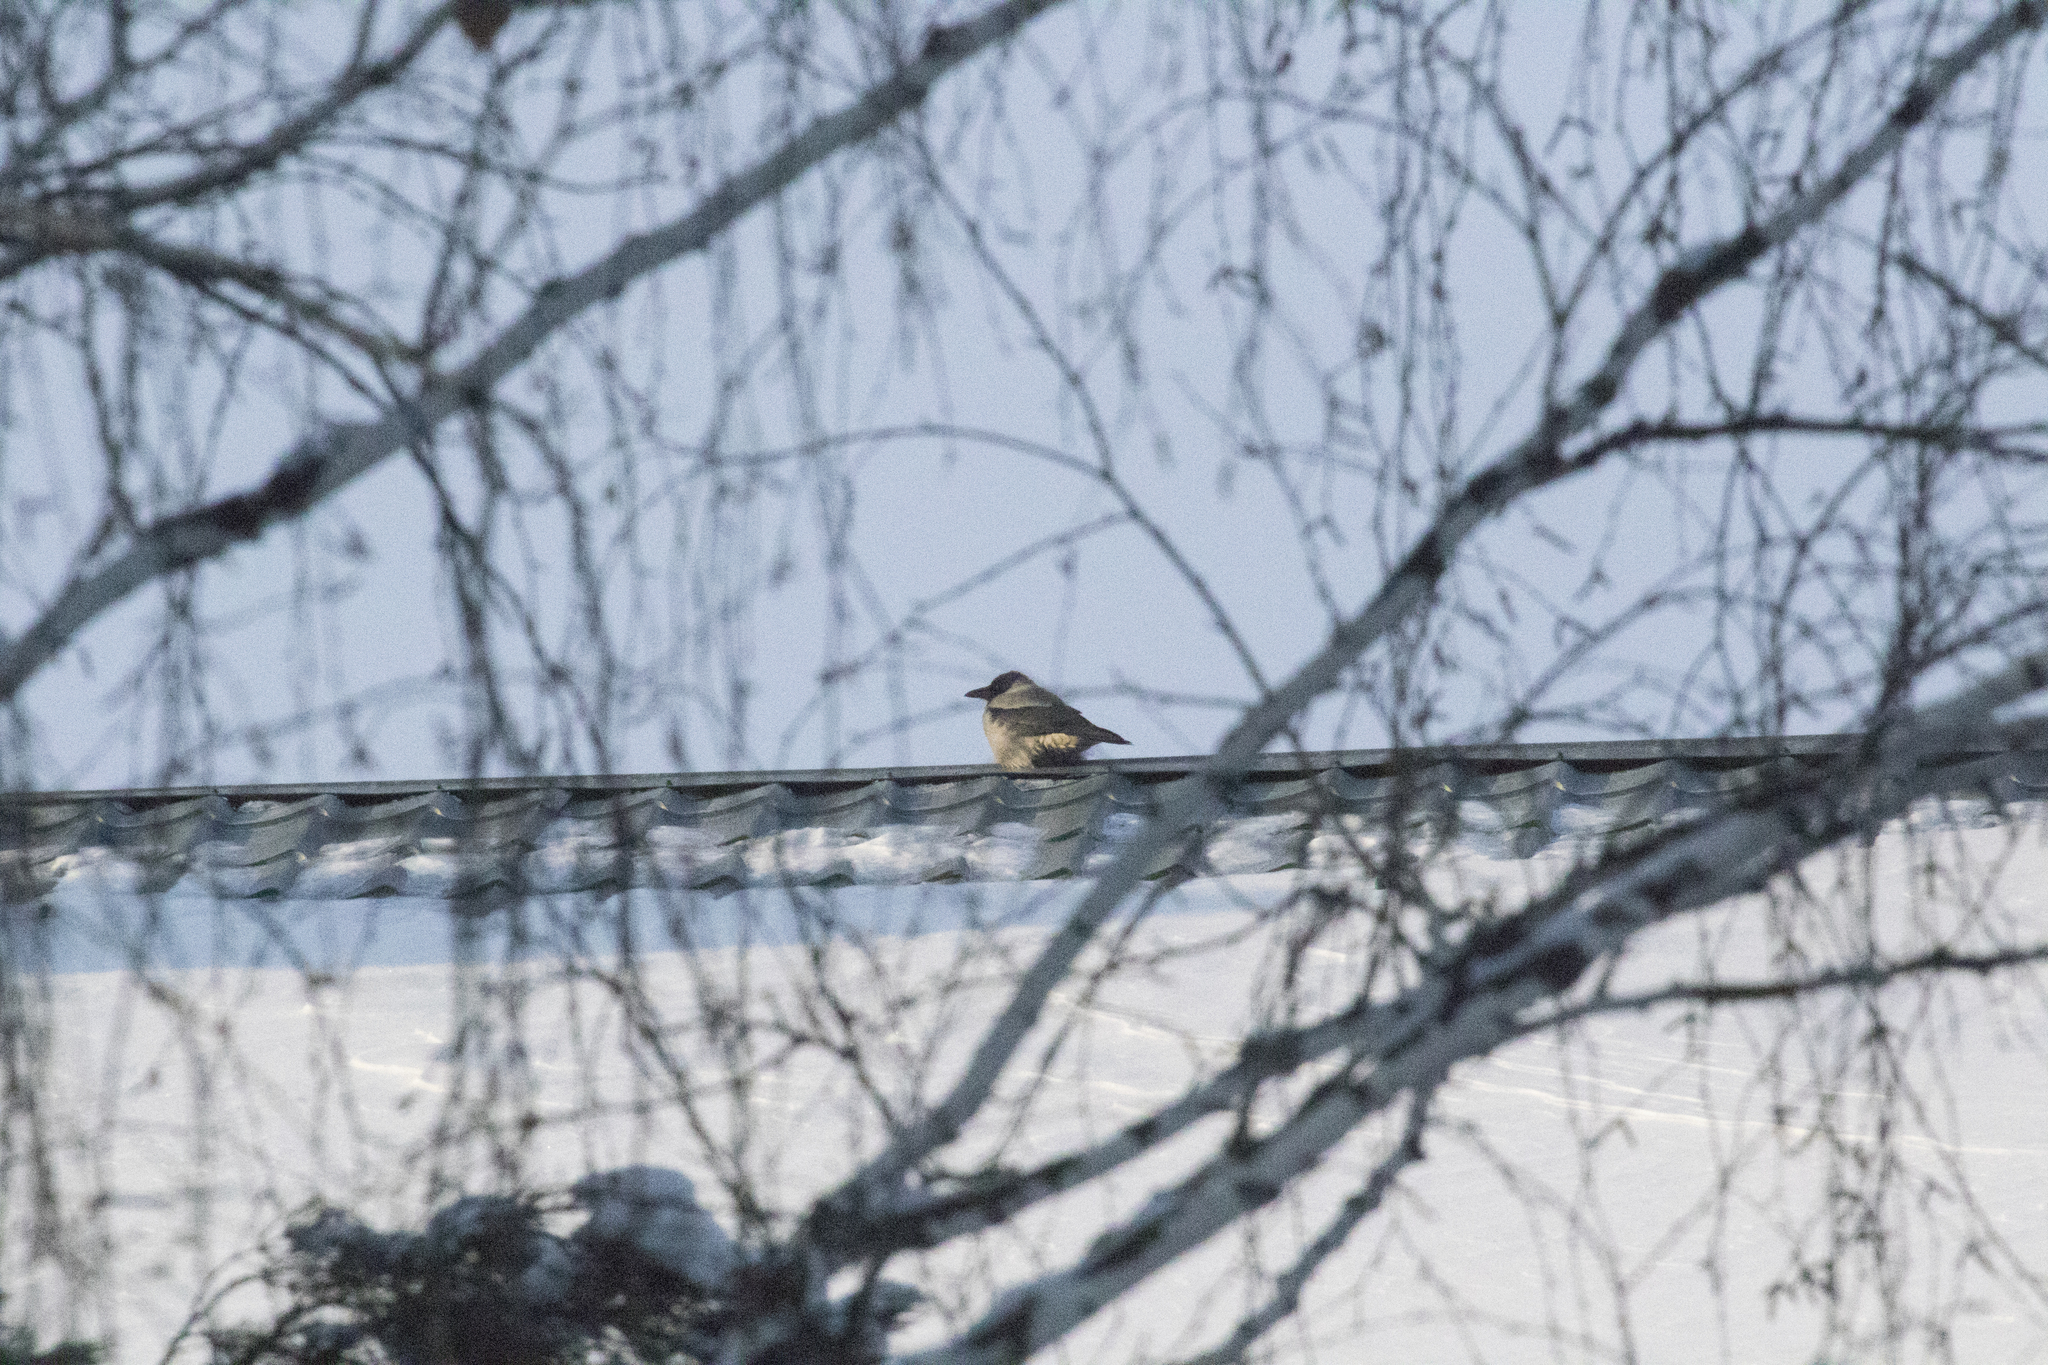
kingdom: Animalia
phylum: Chordata
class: Aves
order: Passeriformes
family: Corvidae
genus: Corvus
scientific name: Corvus cornix
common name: Hooded crow
